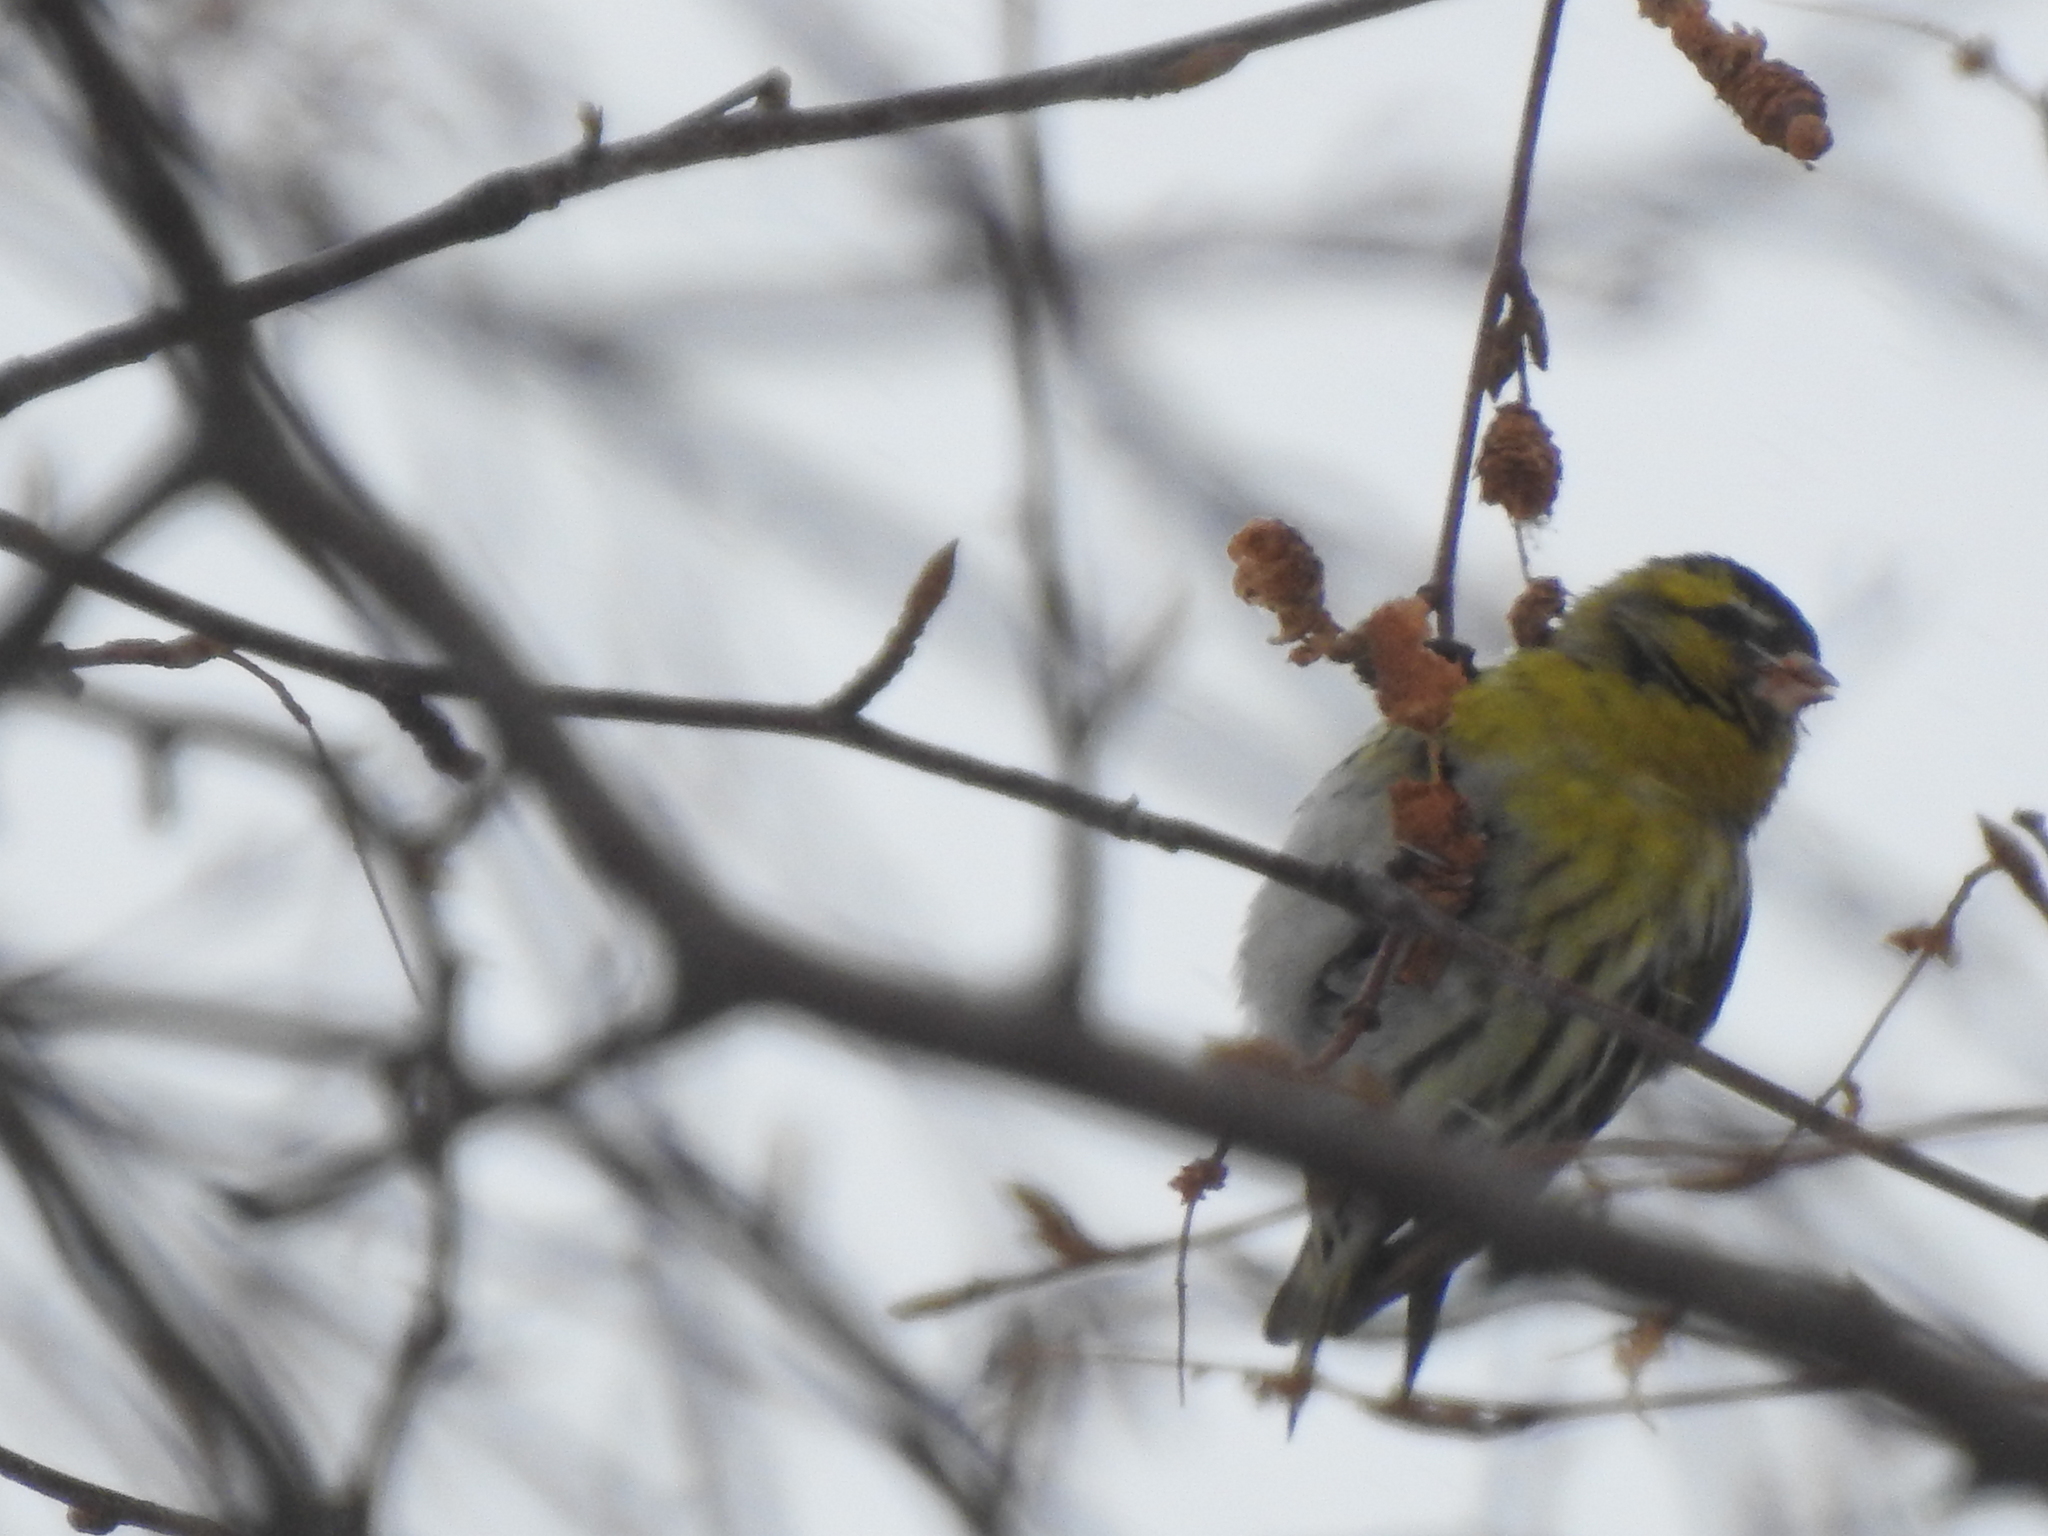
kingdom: Animalia
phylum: Chordata
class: Aves
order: Passeriformes
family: Fringillidae
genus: Spinus
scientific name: Spinus spinus
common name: Eurasian siskin
